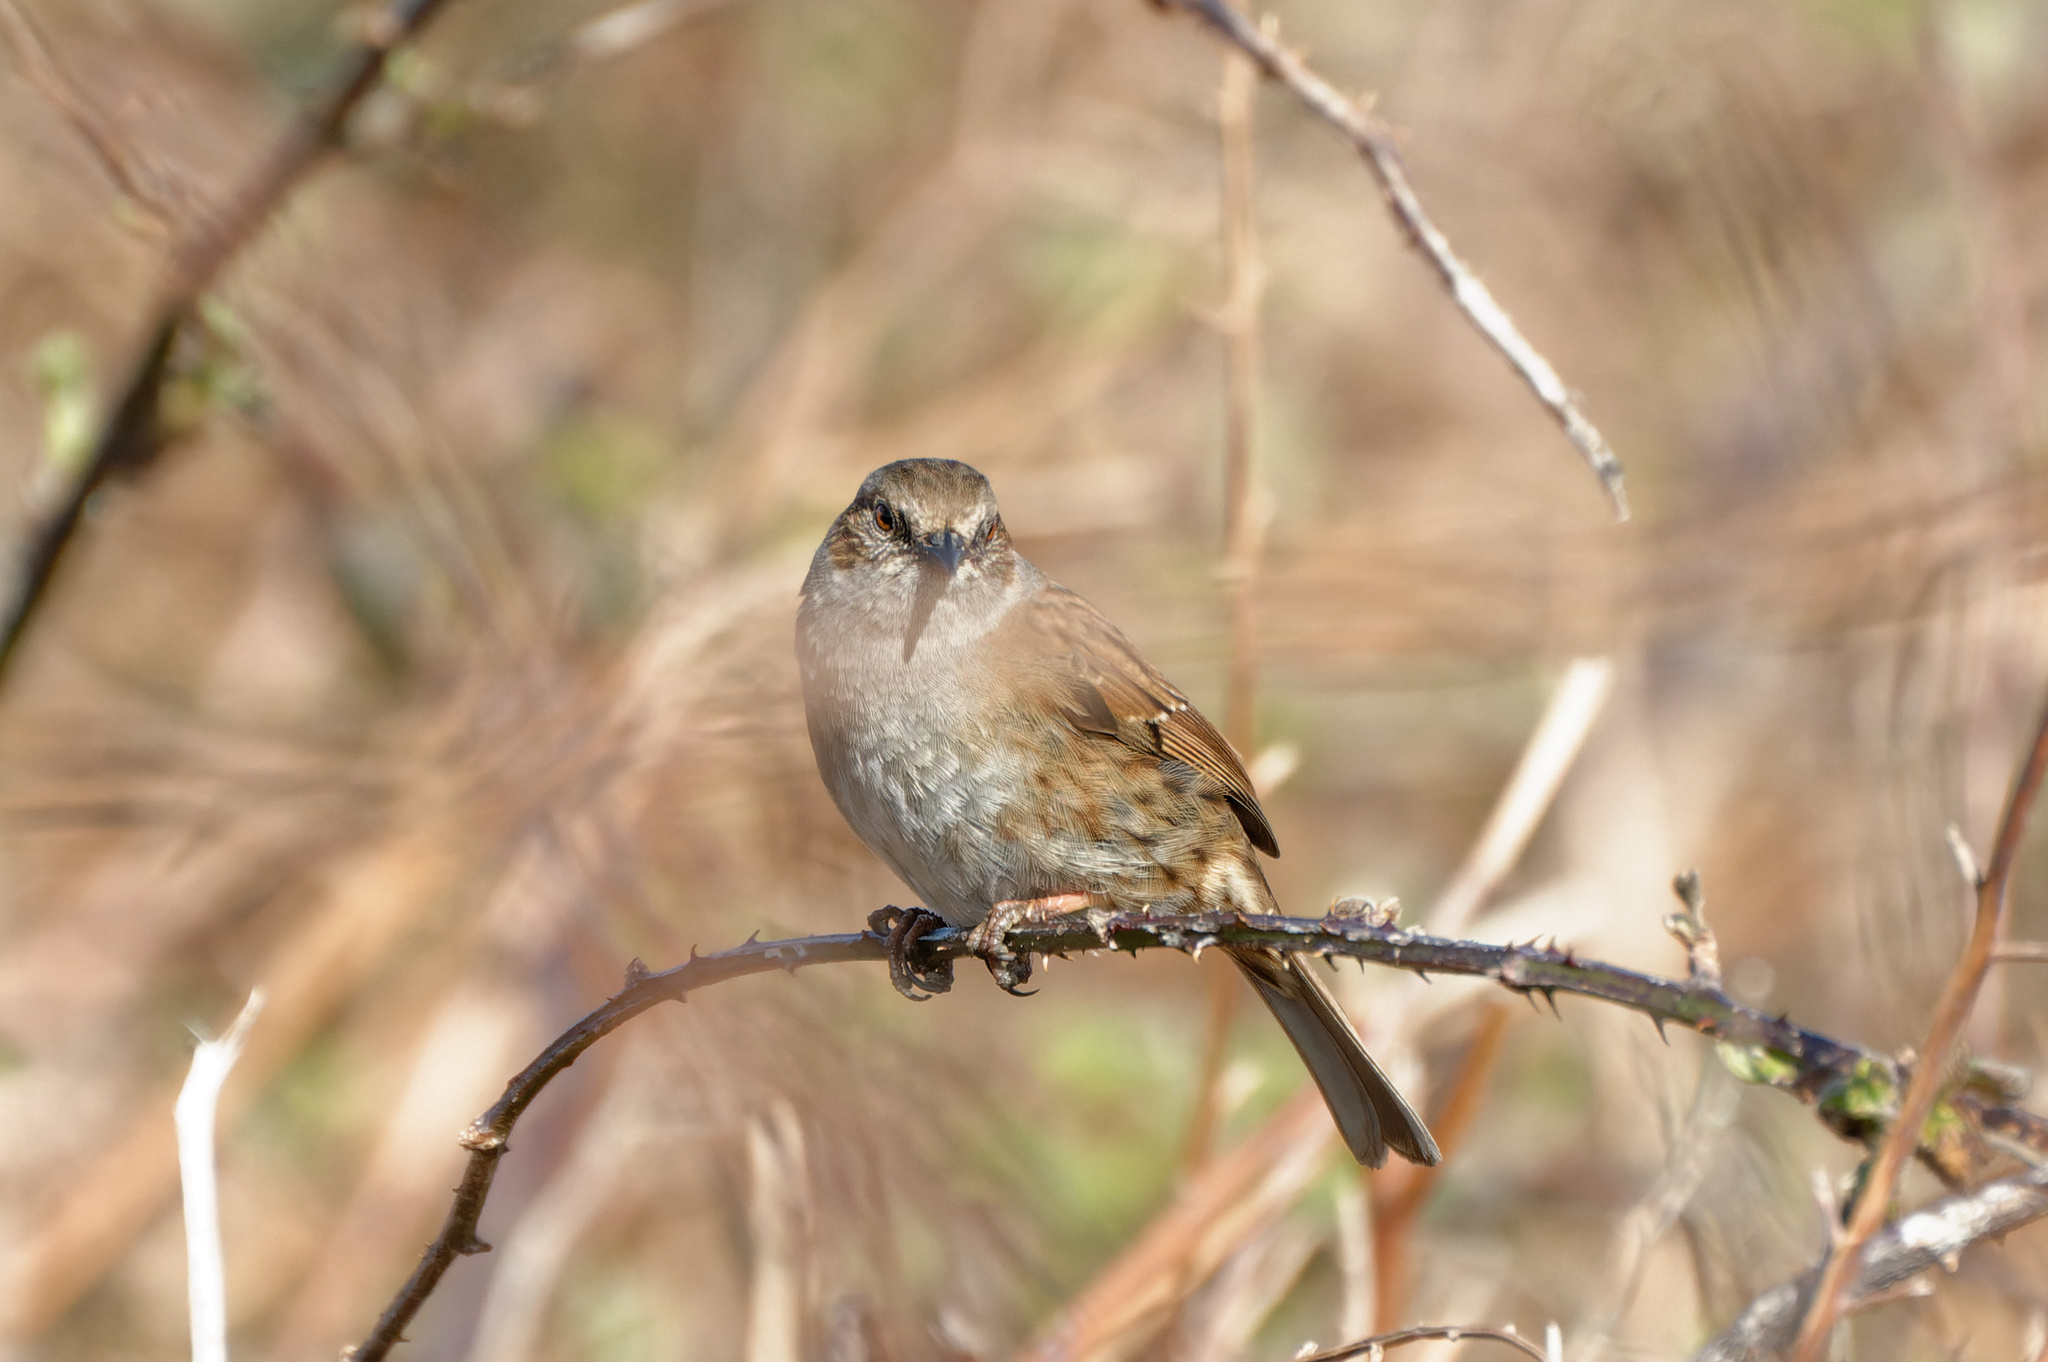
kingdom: Animalia
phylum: Chordata
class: Aves
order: Passeriformes
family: Prunellidae
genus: Prunella
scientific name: Prunella modularis
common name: Dunnock
